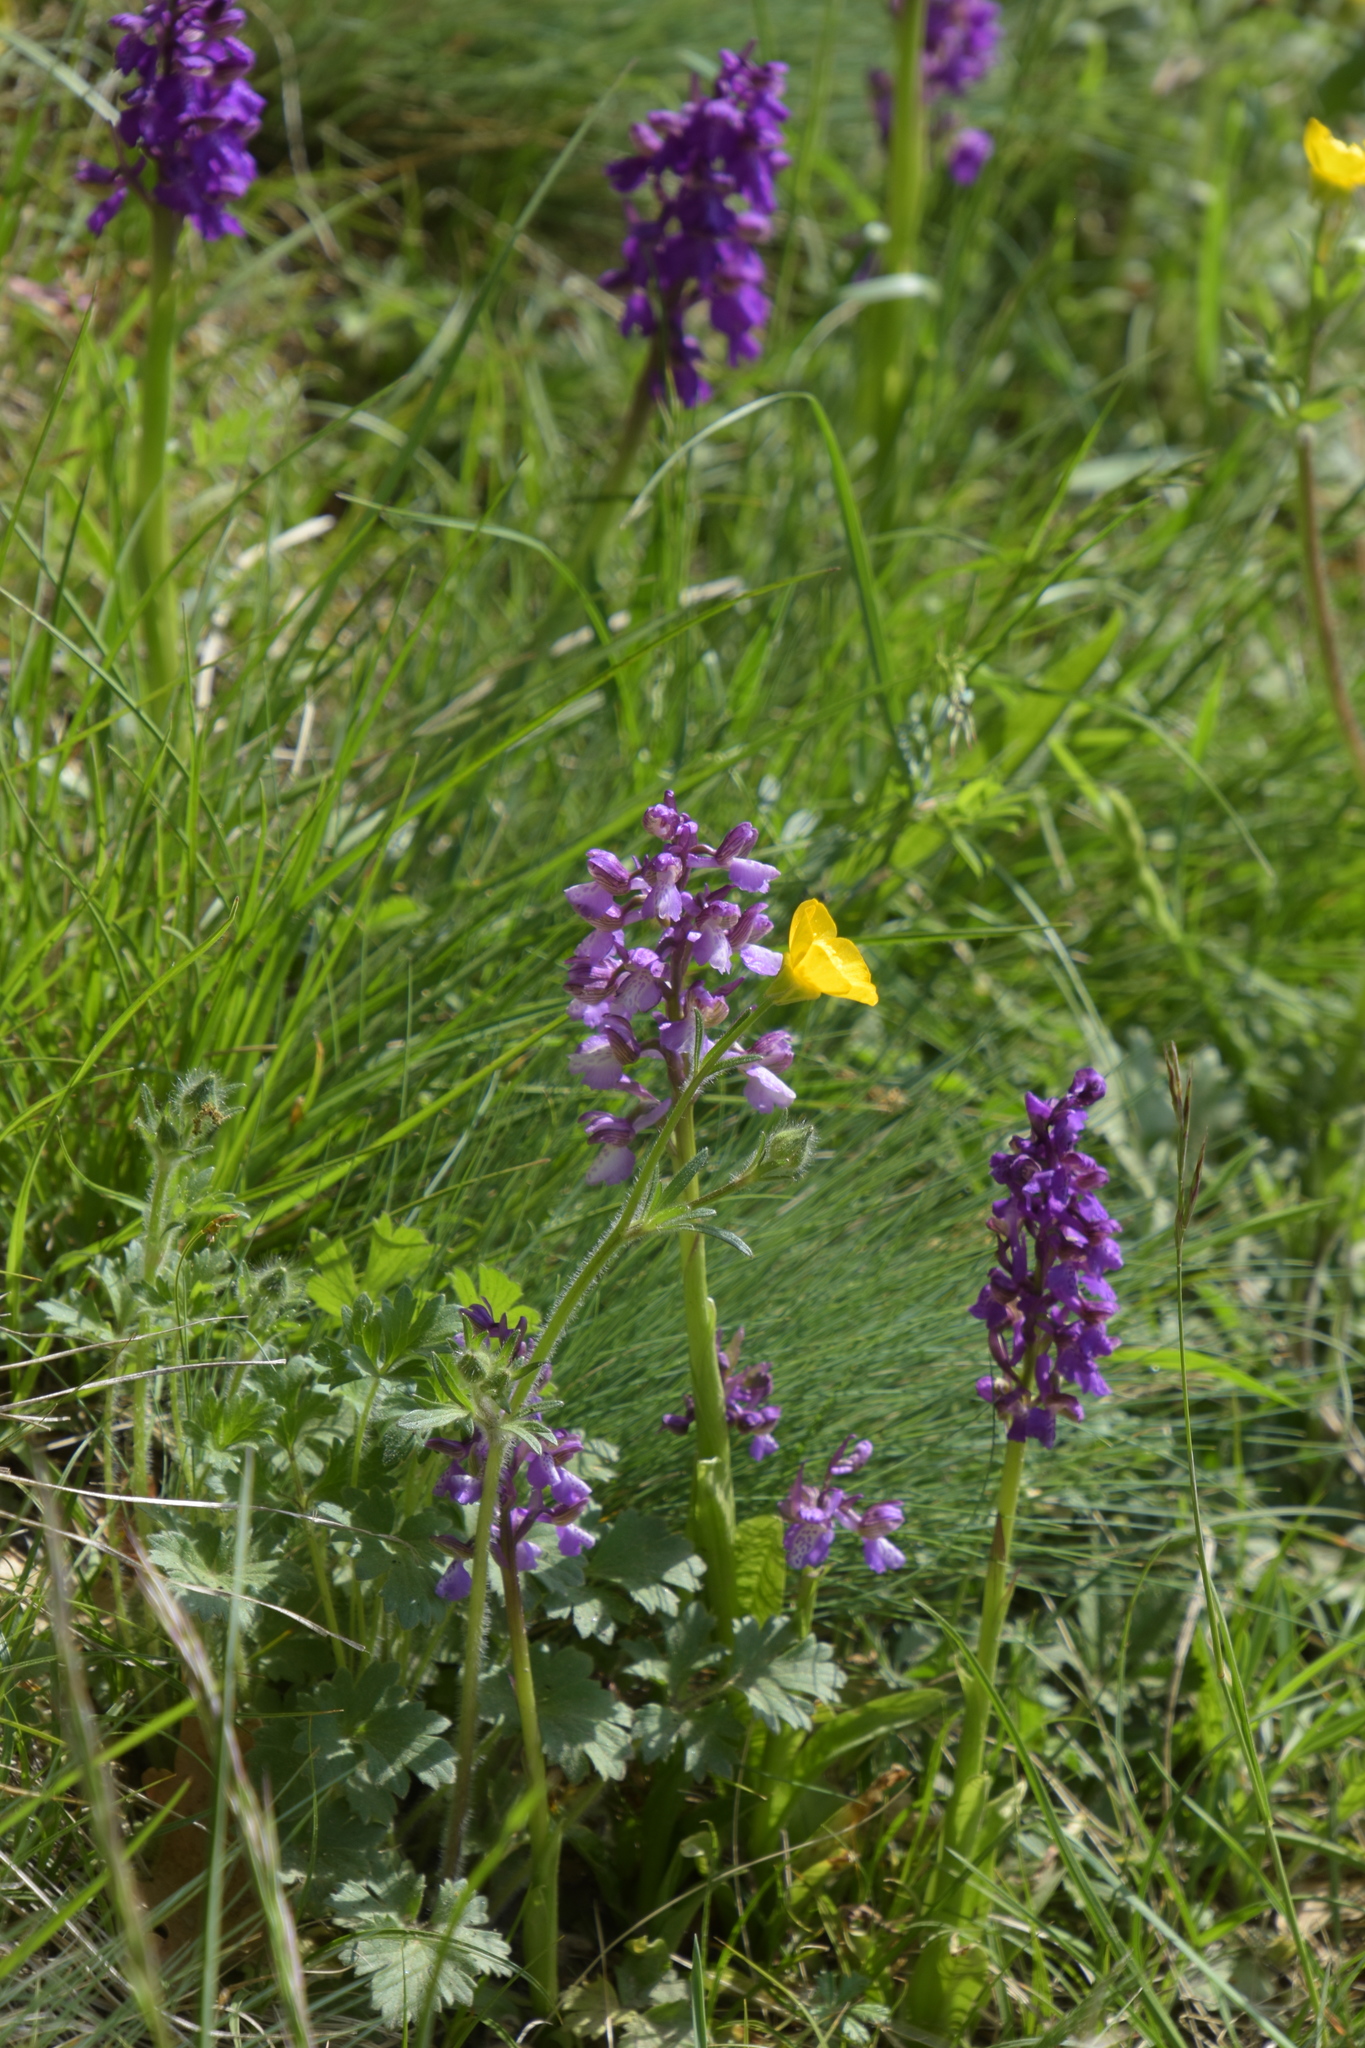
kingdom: Plantae
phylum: Tracheophyta
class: Liliopsida
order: Asparagales
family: Orchidaceae
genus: Anacamptis
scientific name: Anacamptis morio
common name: Green-winged orchid
